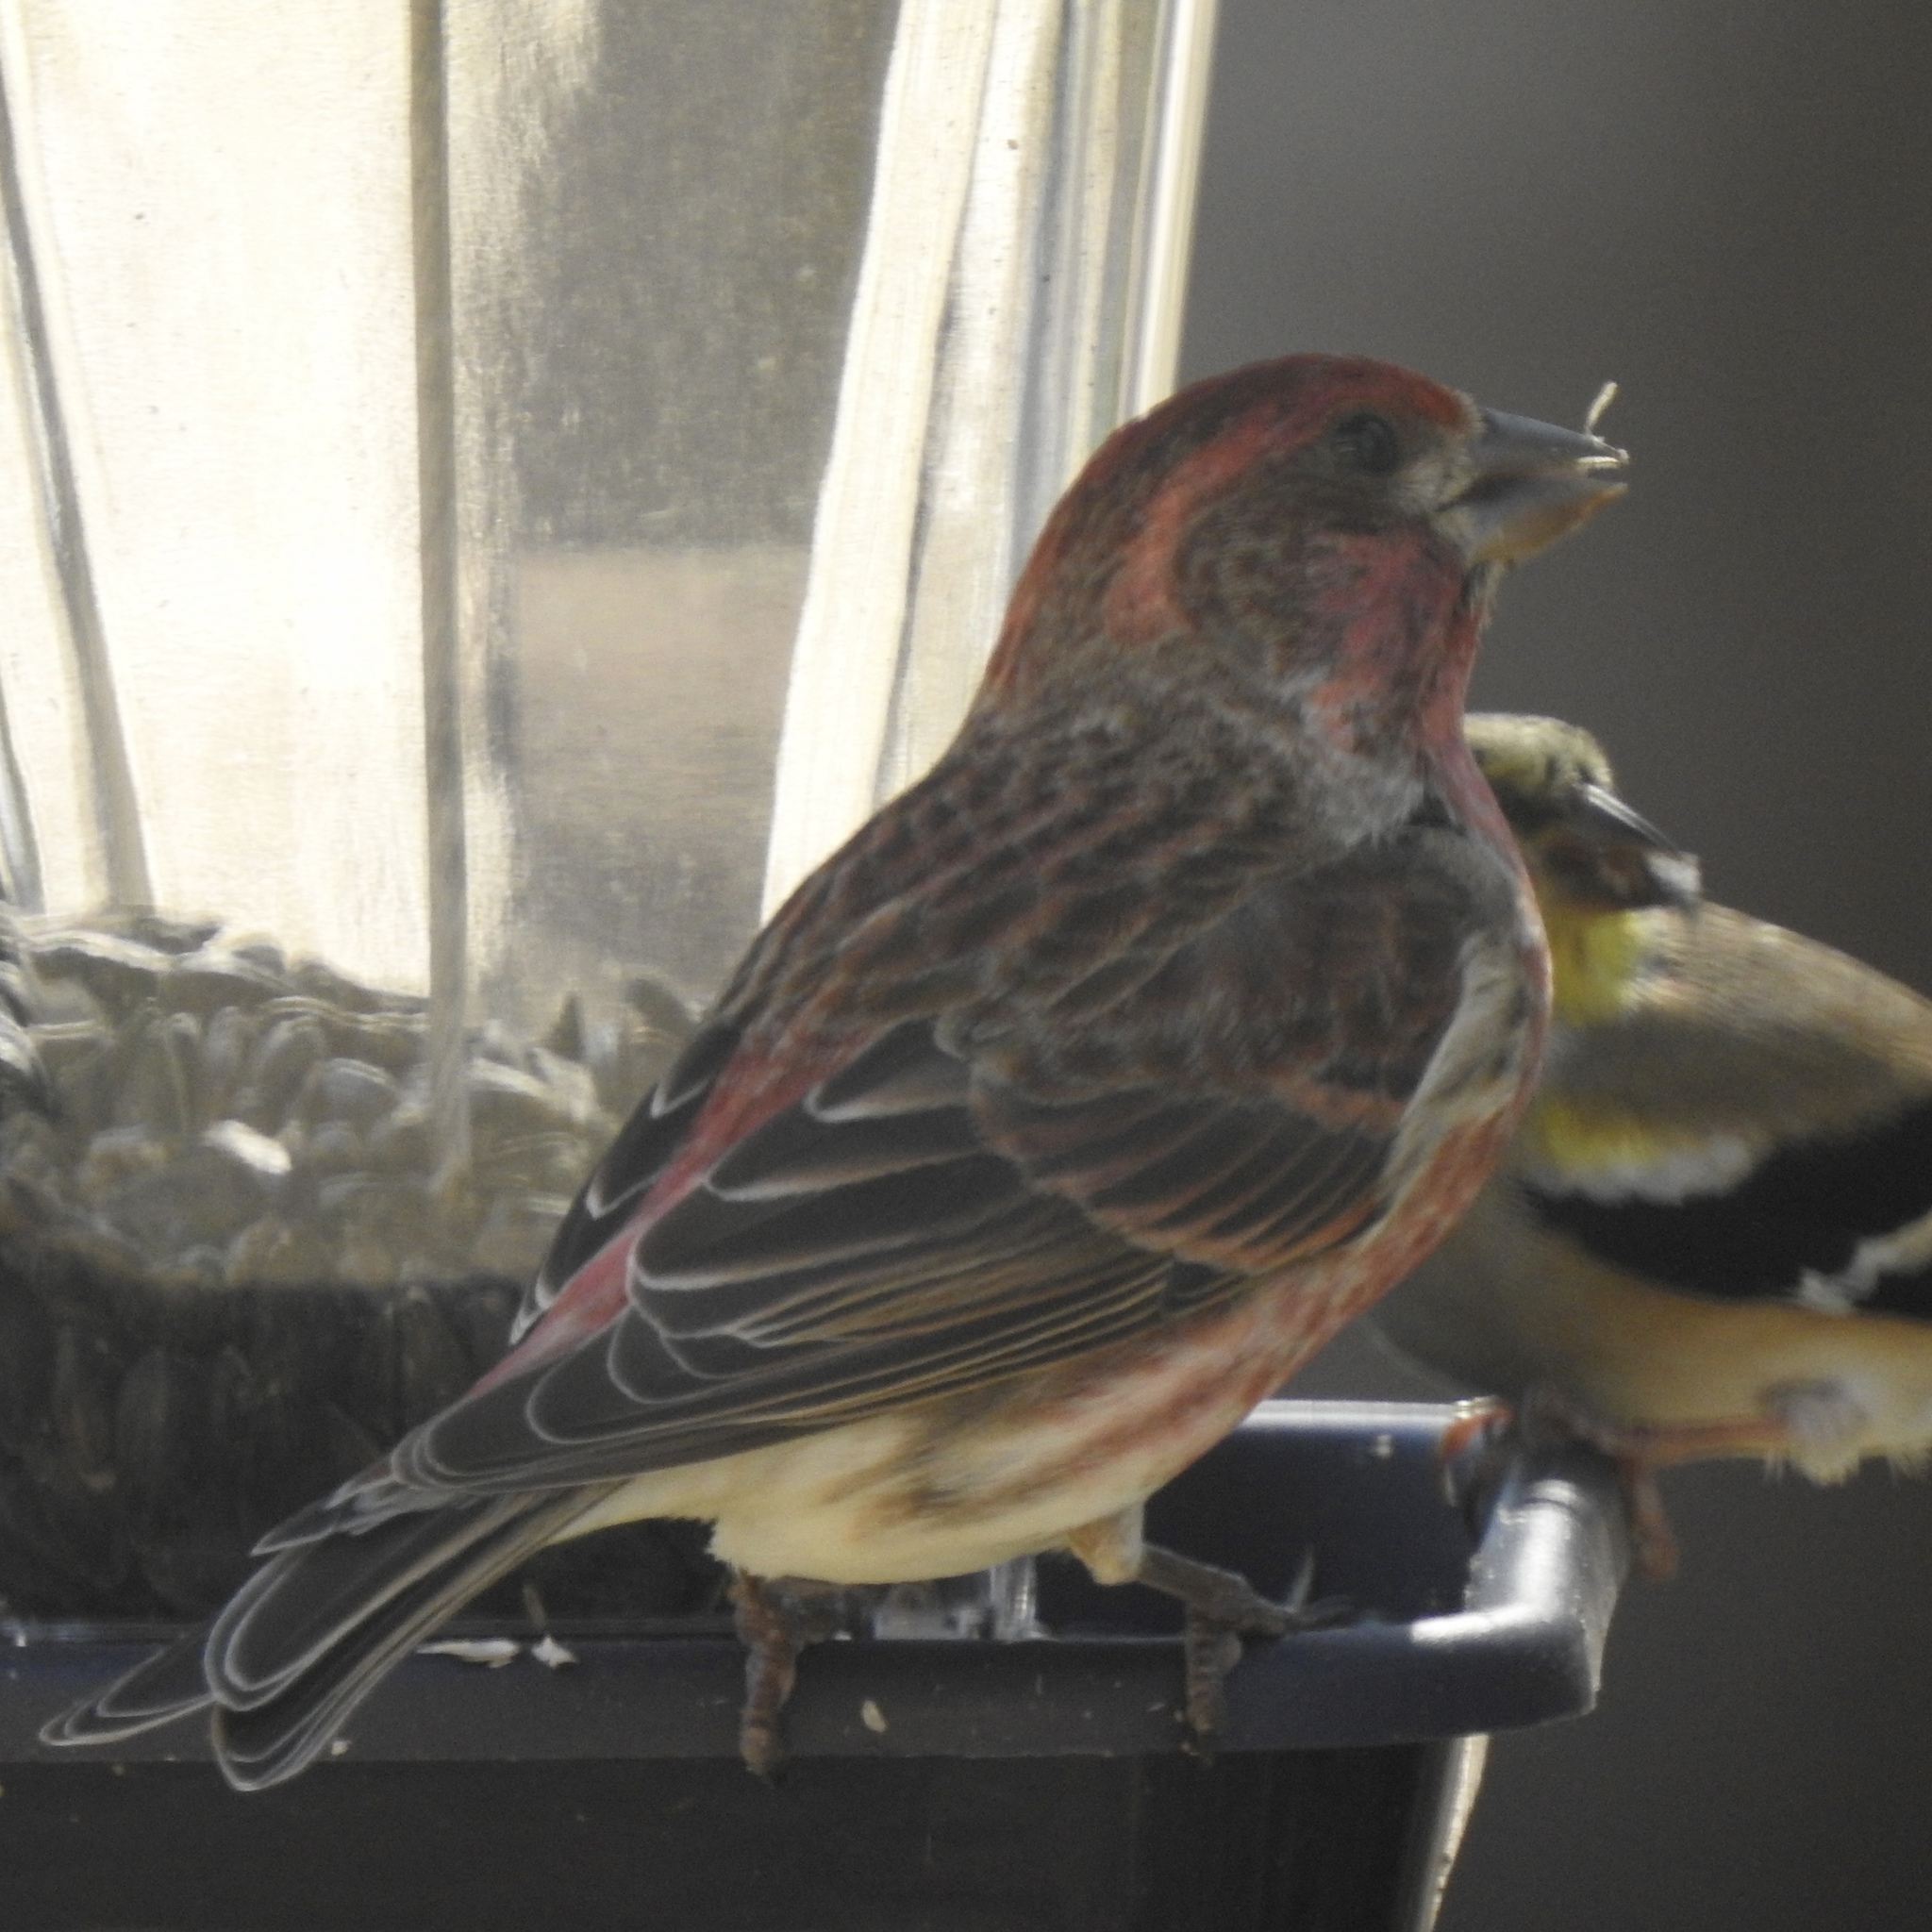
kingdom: Animalia
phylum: Chordata
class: Aves
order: Passeriformes
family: Fringillidae
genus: Haemorhous
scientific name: Haemorhous purpureus
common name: Purple finch
